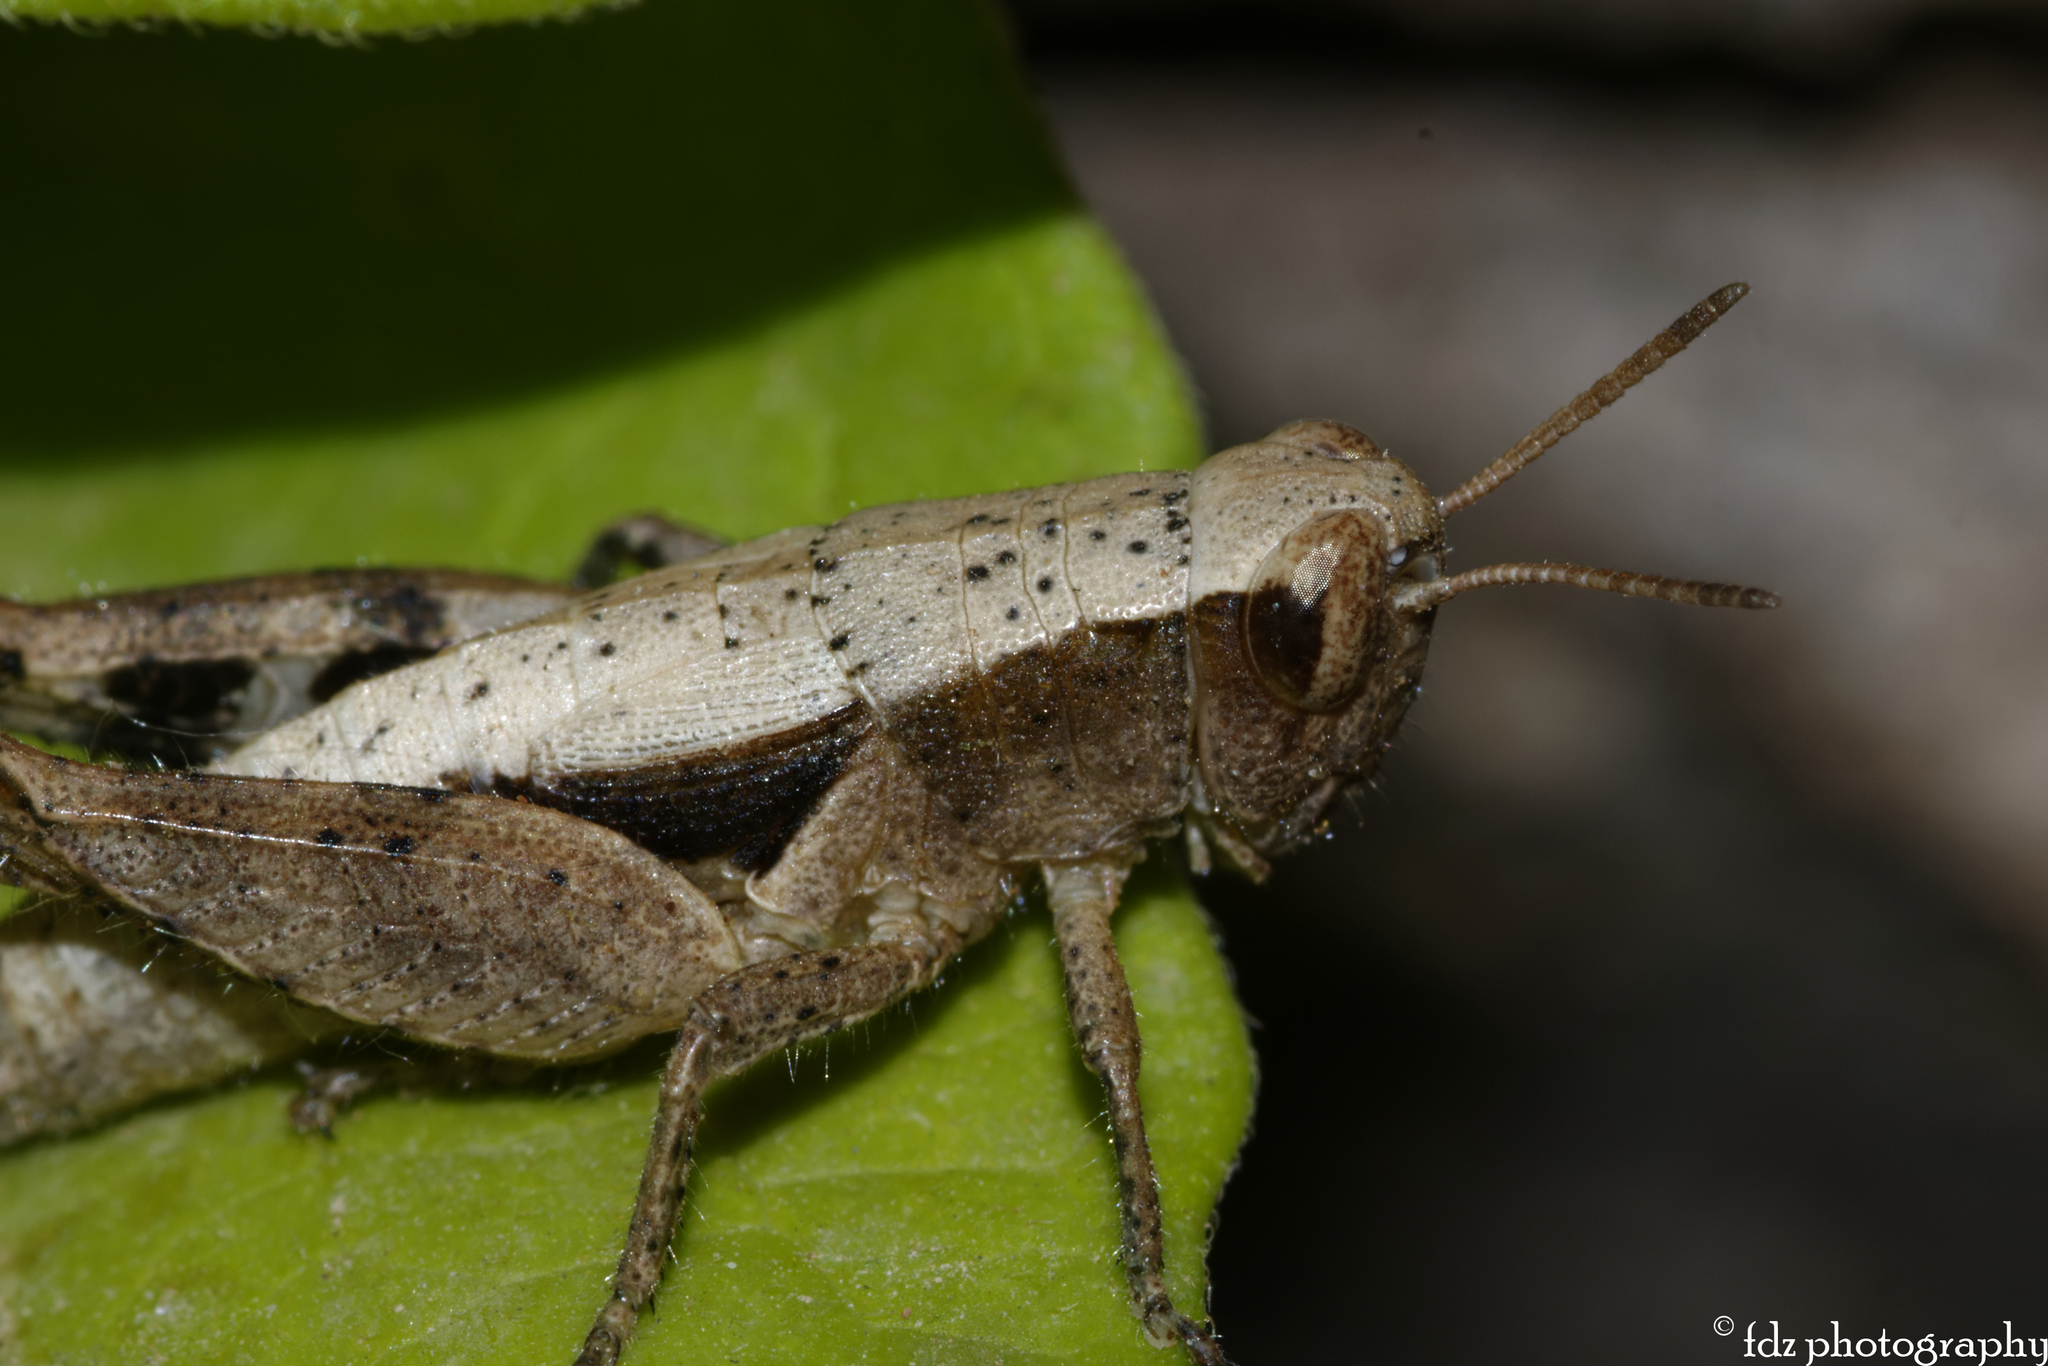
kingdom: Animalia
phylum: Arthropoda
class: Insecta
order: Orthoptera
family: Acrididae
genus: Pezotettix
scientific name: Pezotettix giornae
